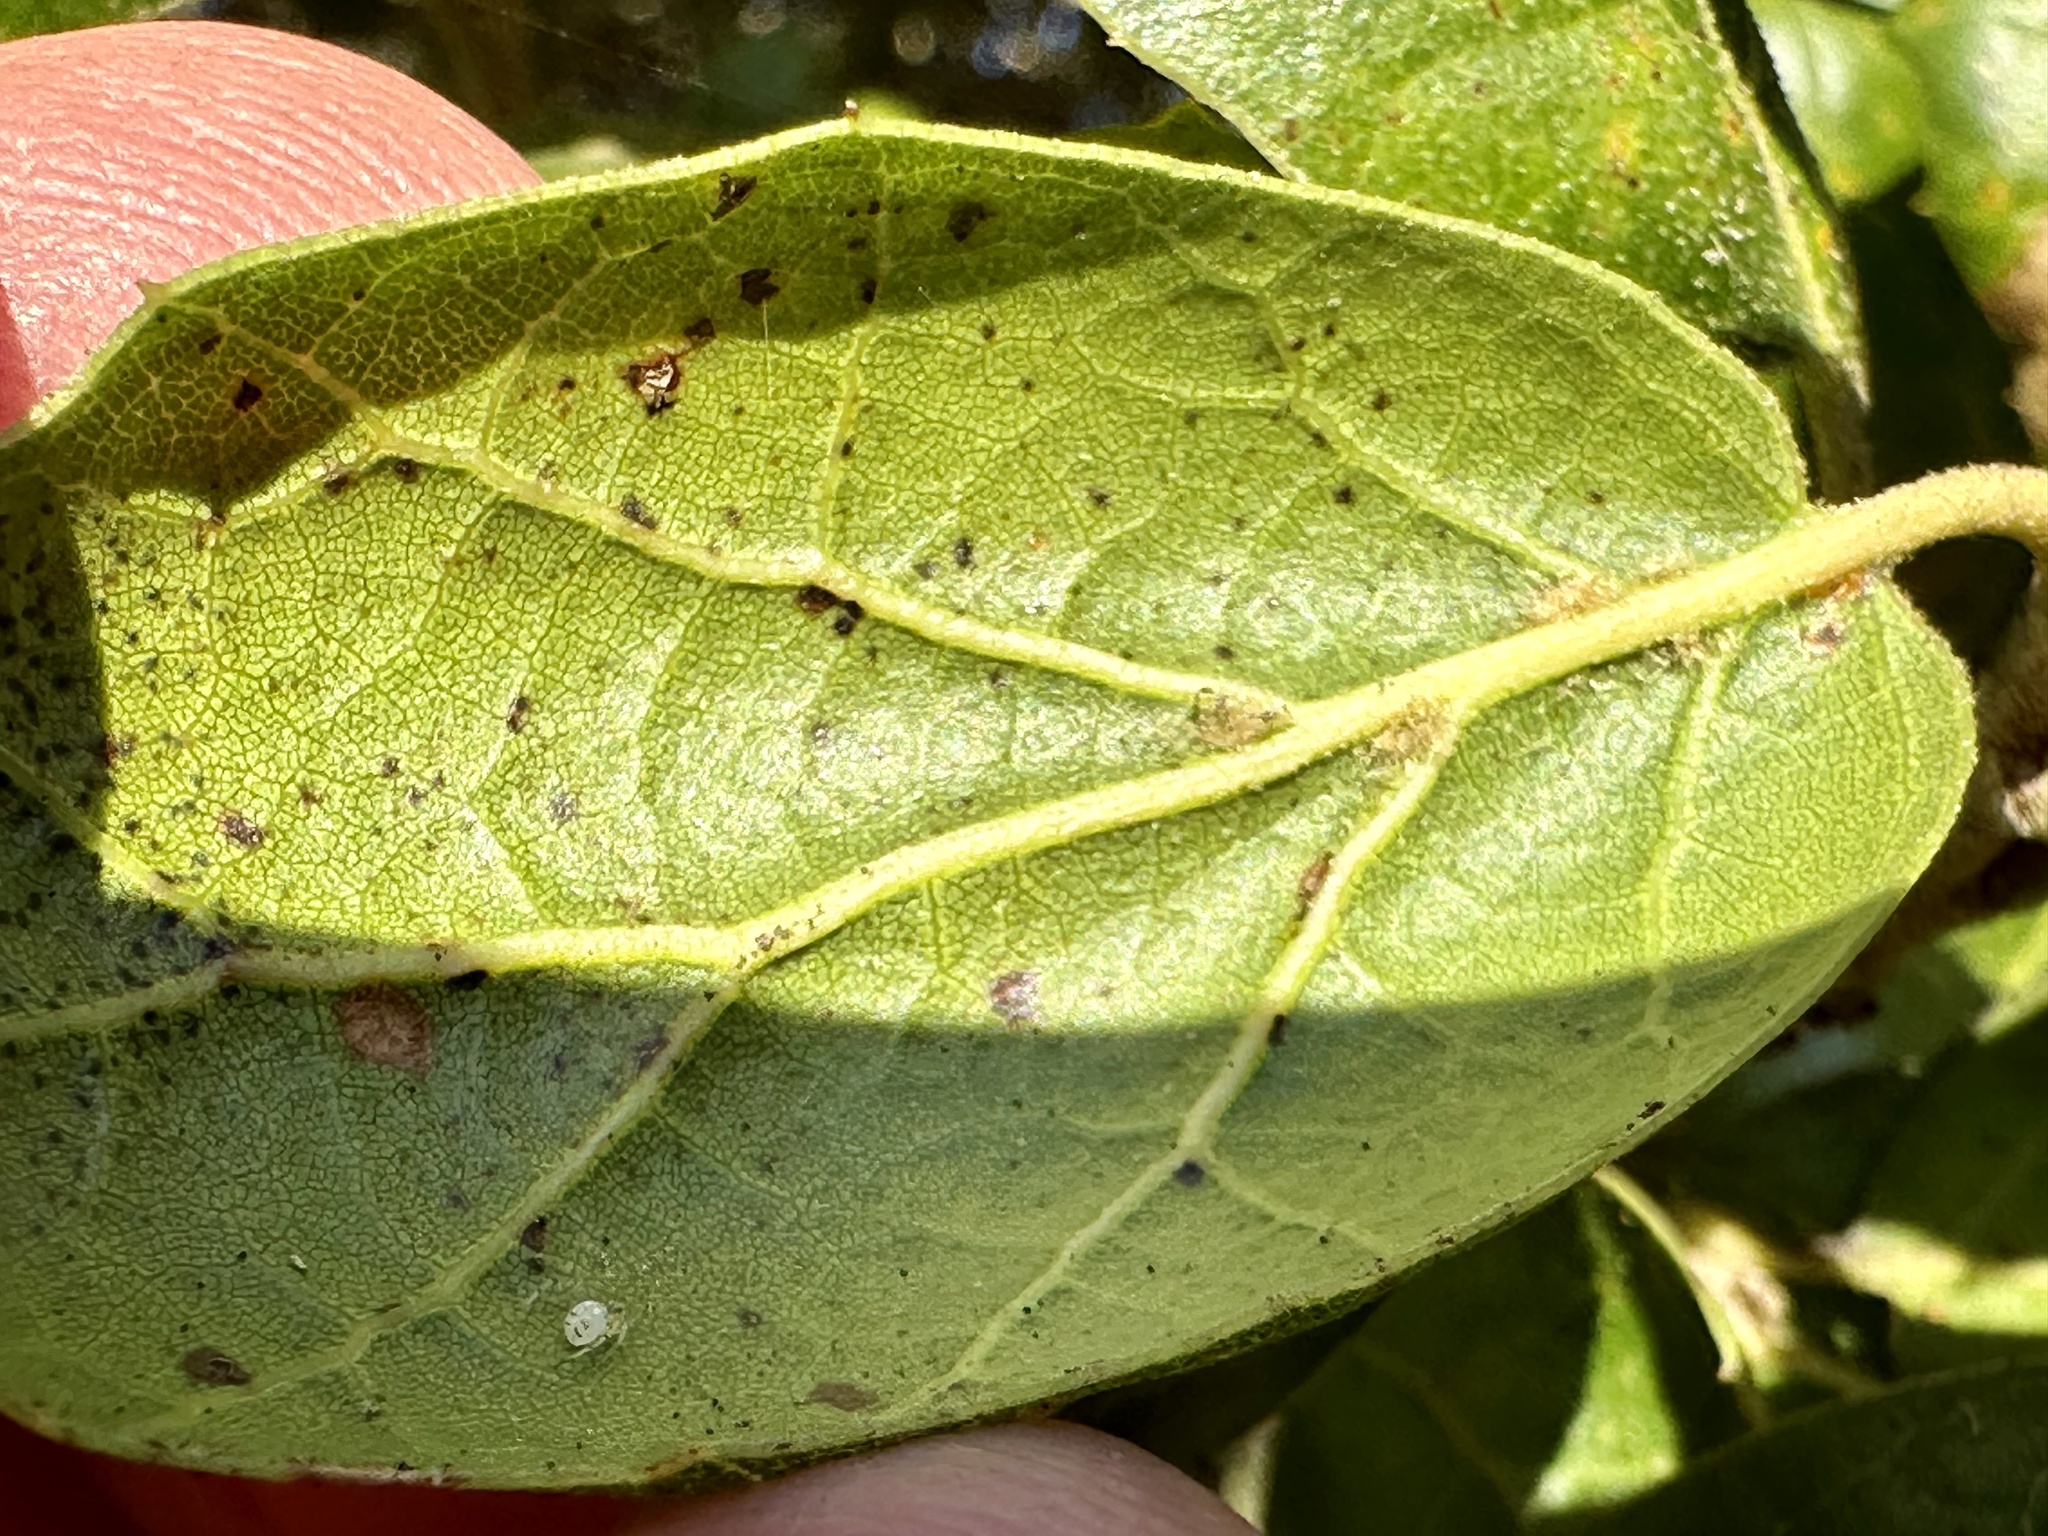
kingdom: Plantae
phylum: Tracheophyta
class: Magnoliopsida
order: Fagales
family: Fagaceae
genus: Quercus
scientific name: Quercus agrifolia
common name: California live oak
